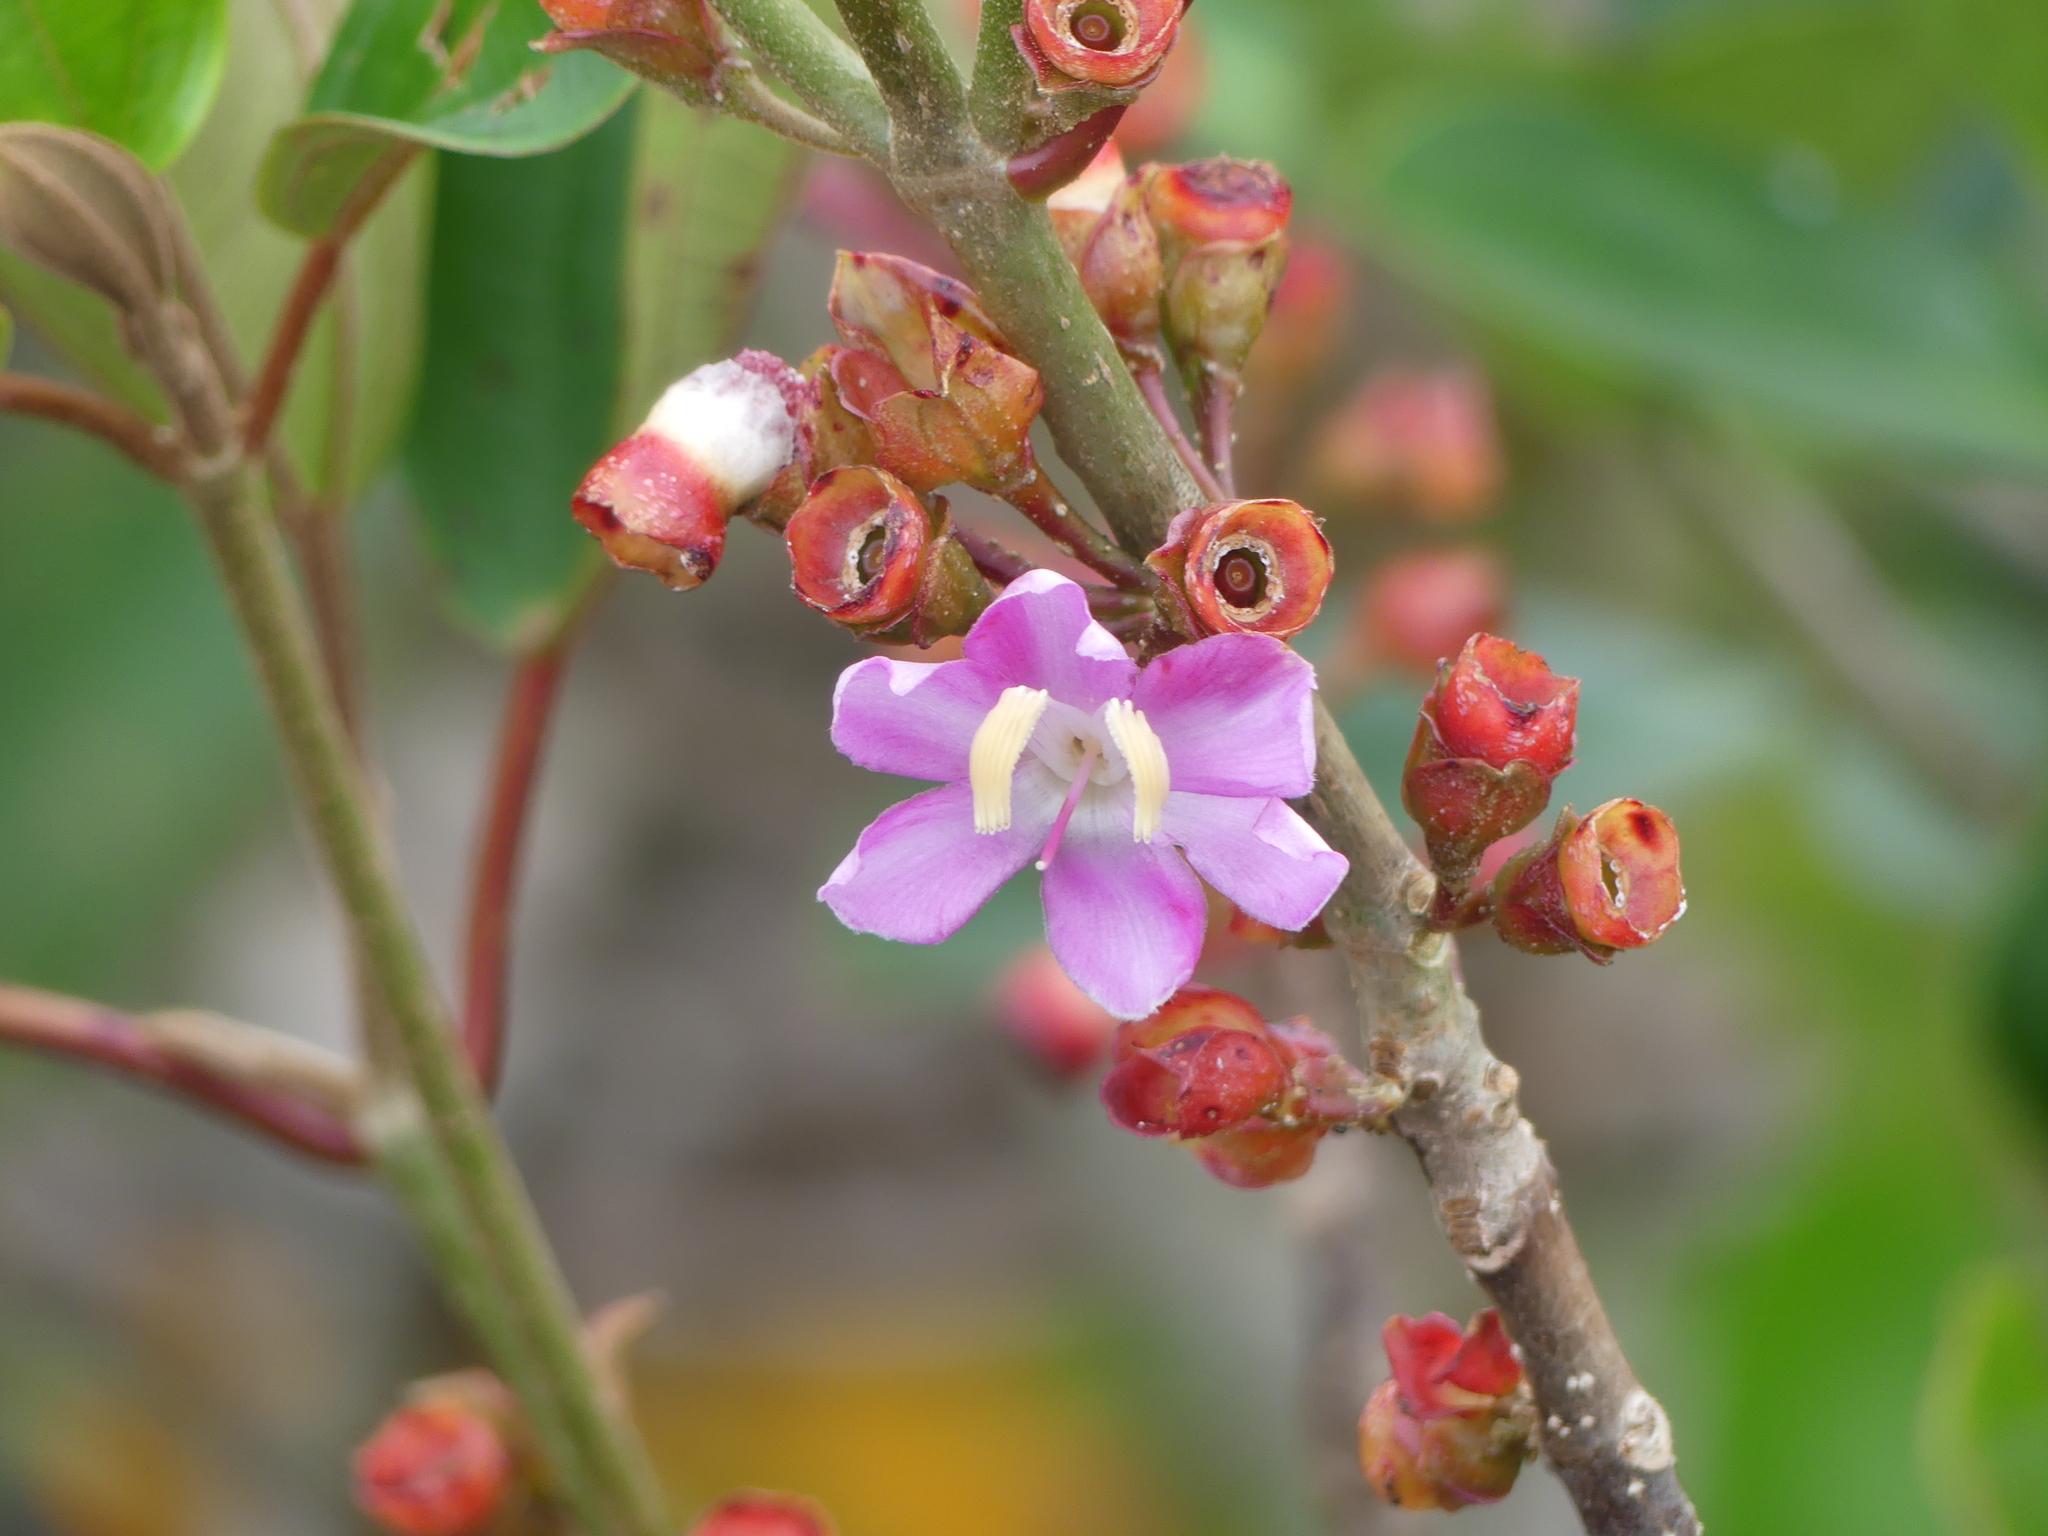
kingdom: Plantae
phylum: Tracheophyta
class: Magnoliopsida
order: Myrtales
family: Melastomataceae
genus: Blakea
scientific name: Blakea parasitica
